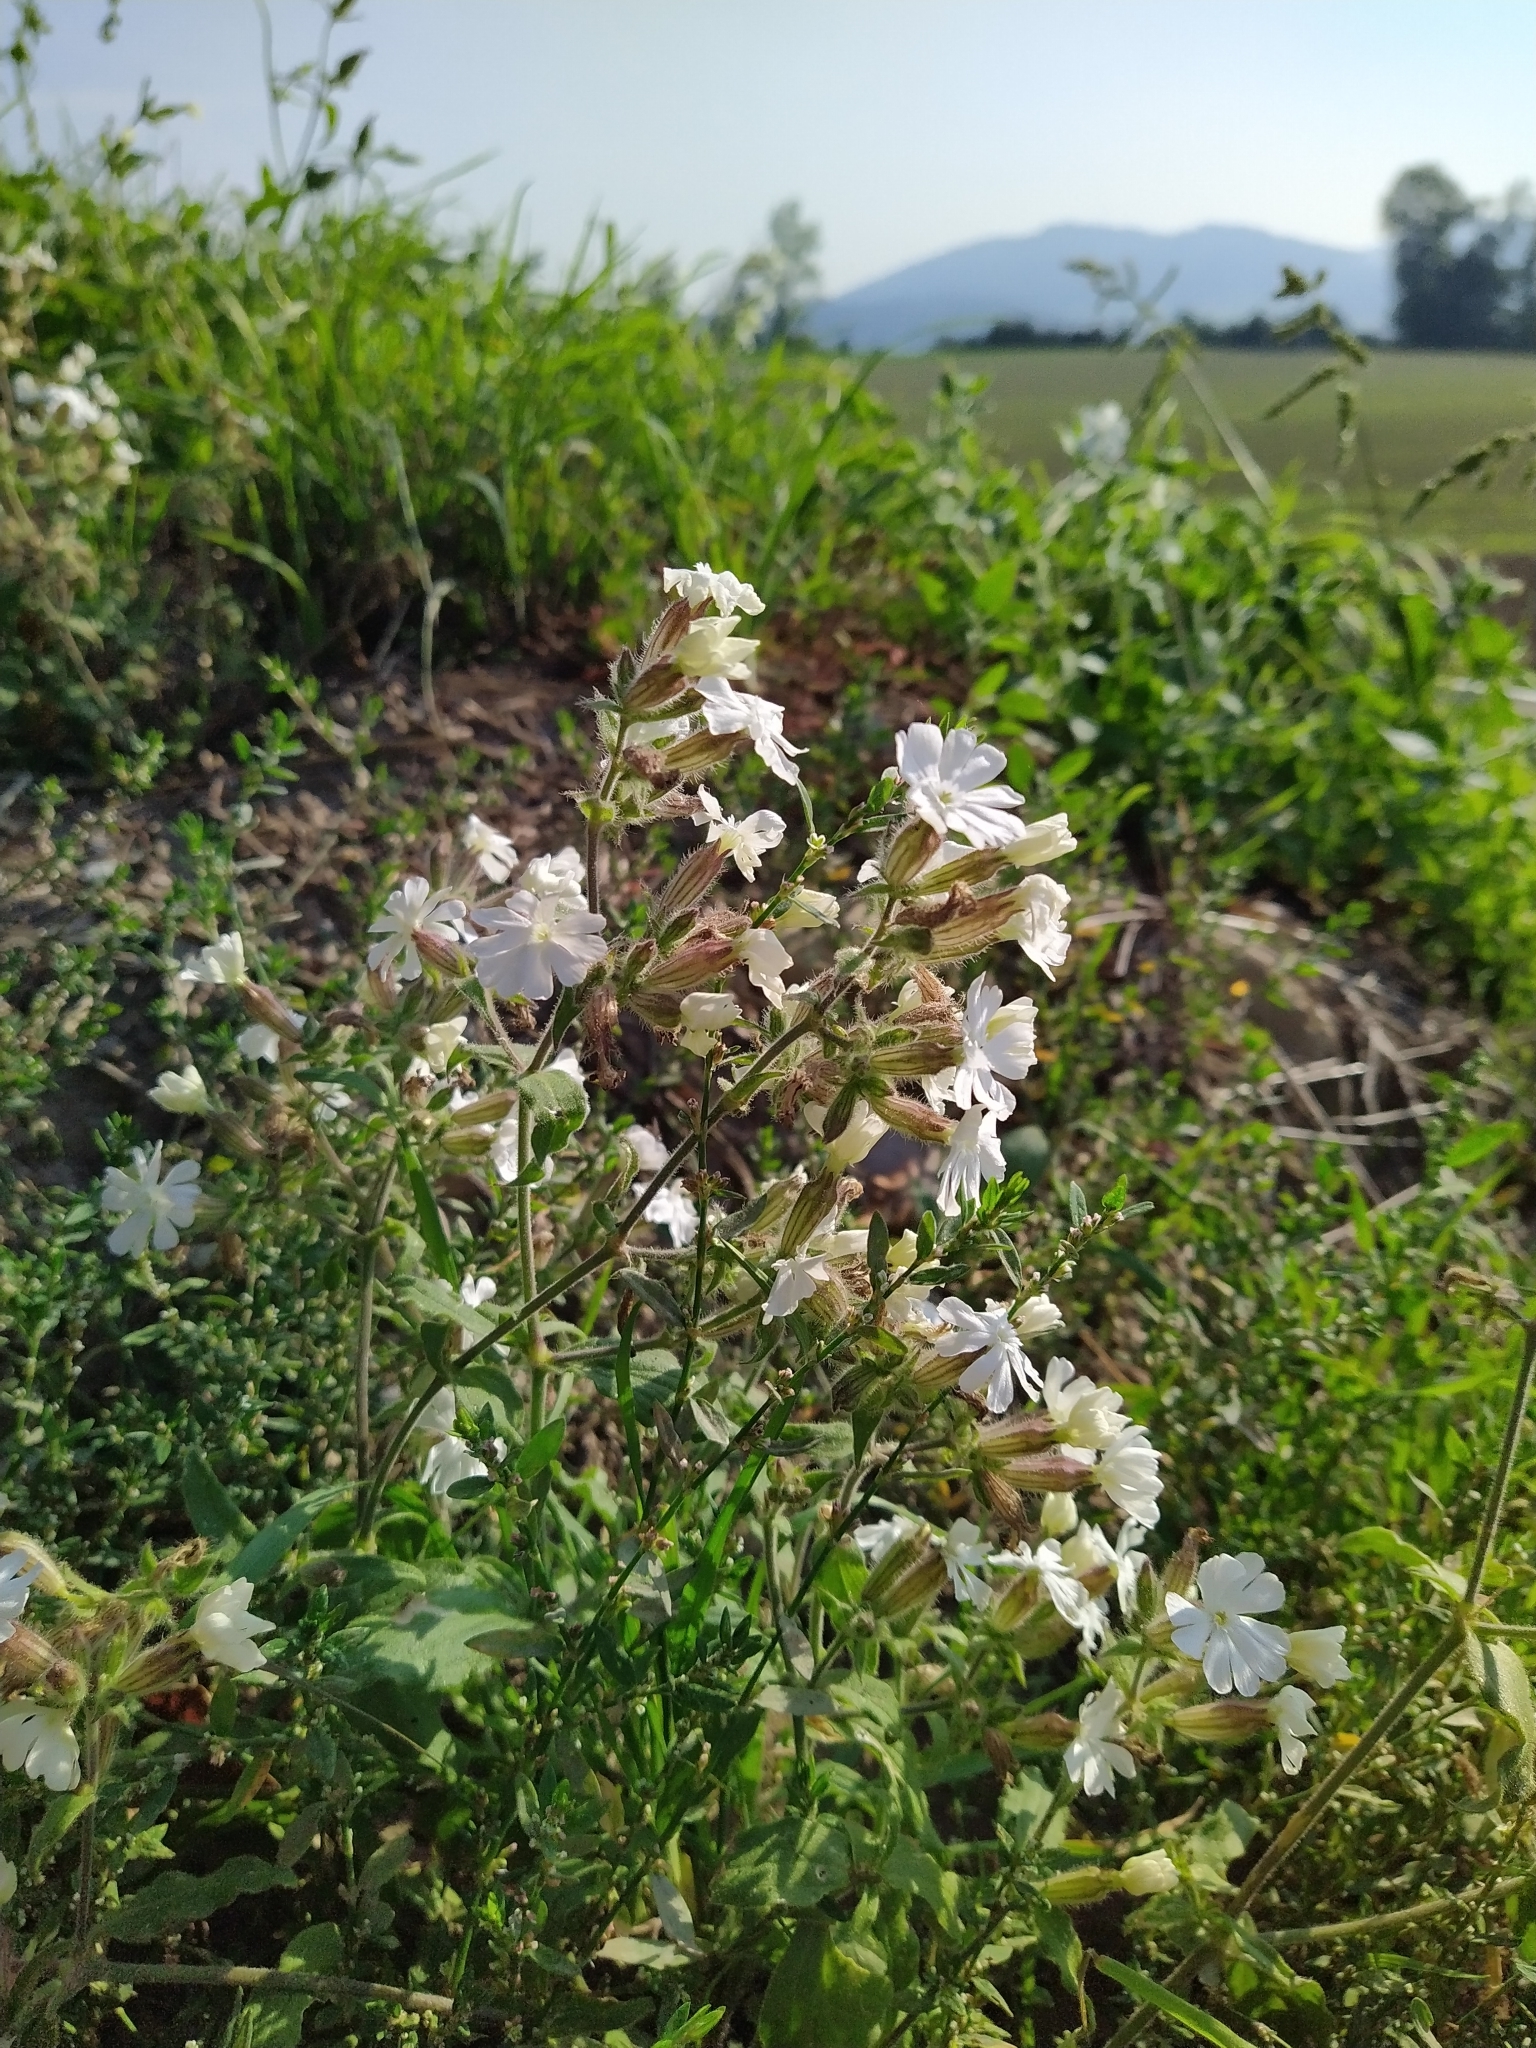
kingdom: Plantae
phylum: Tracheophyta
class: Magnoliopsida
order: Caryophyllales
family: Caryophyllaceae
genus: Silene
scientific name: Silene latifolia
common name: White campion
